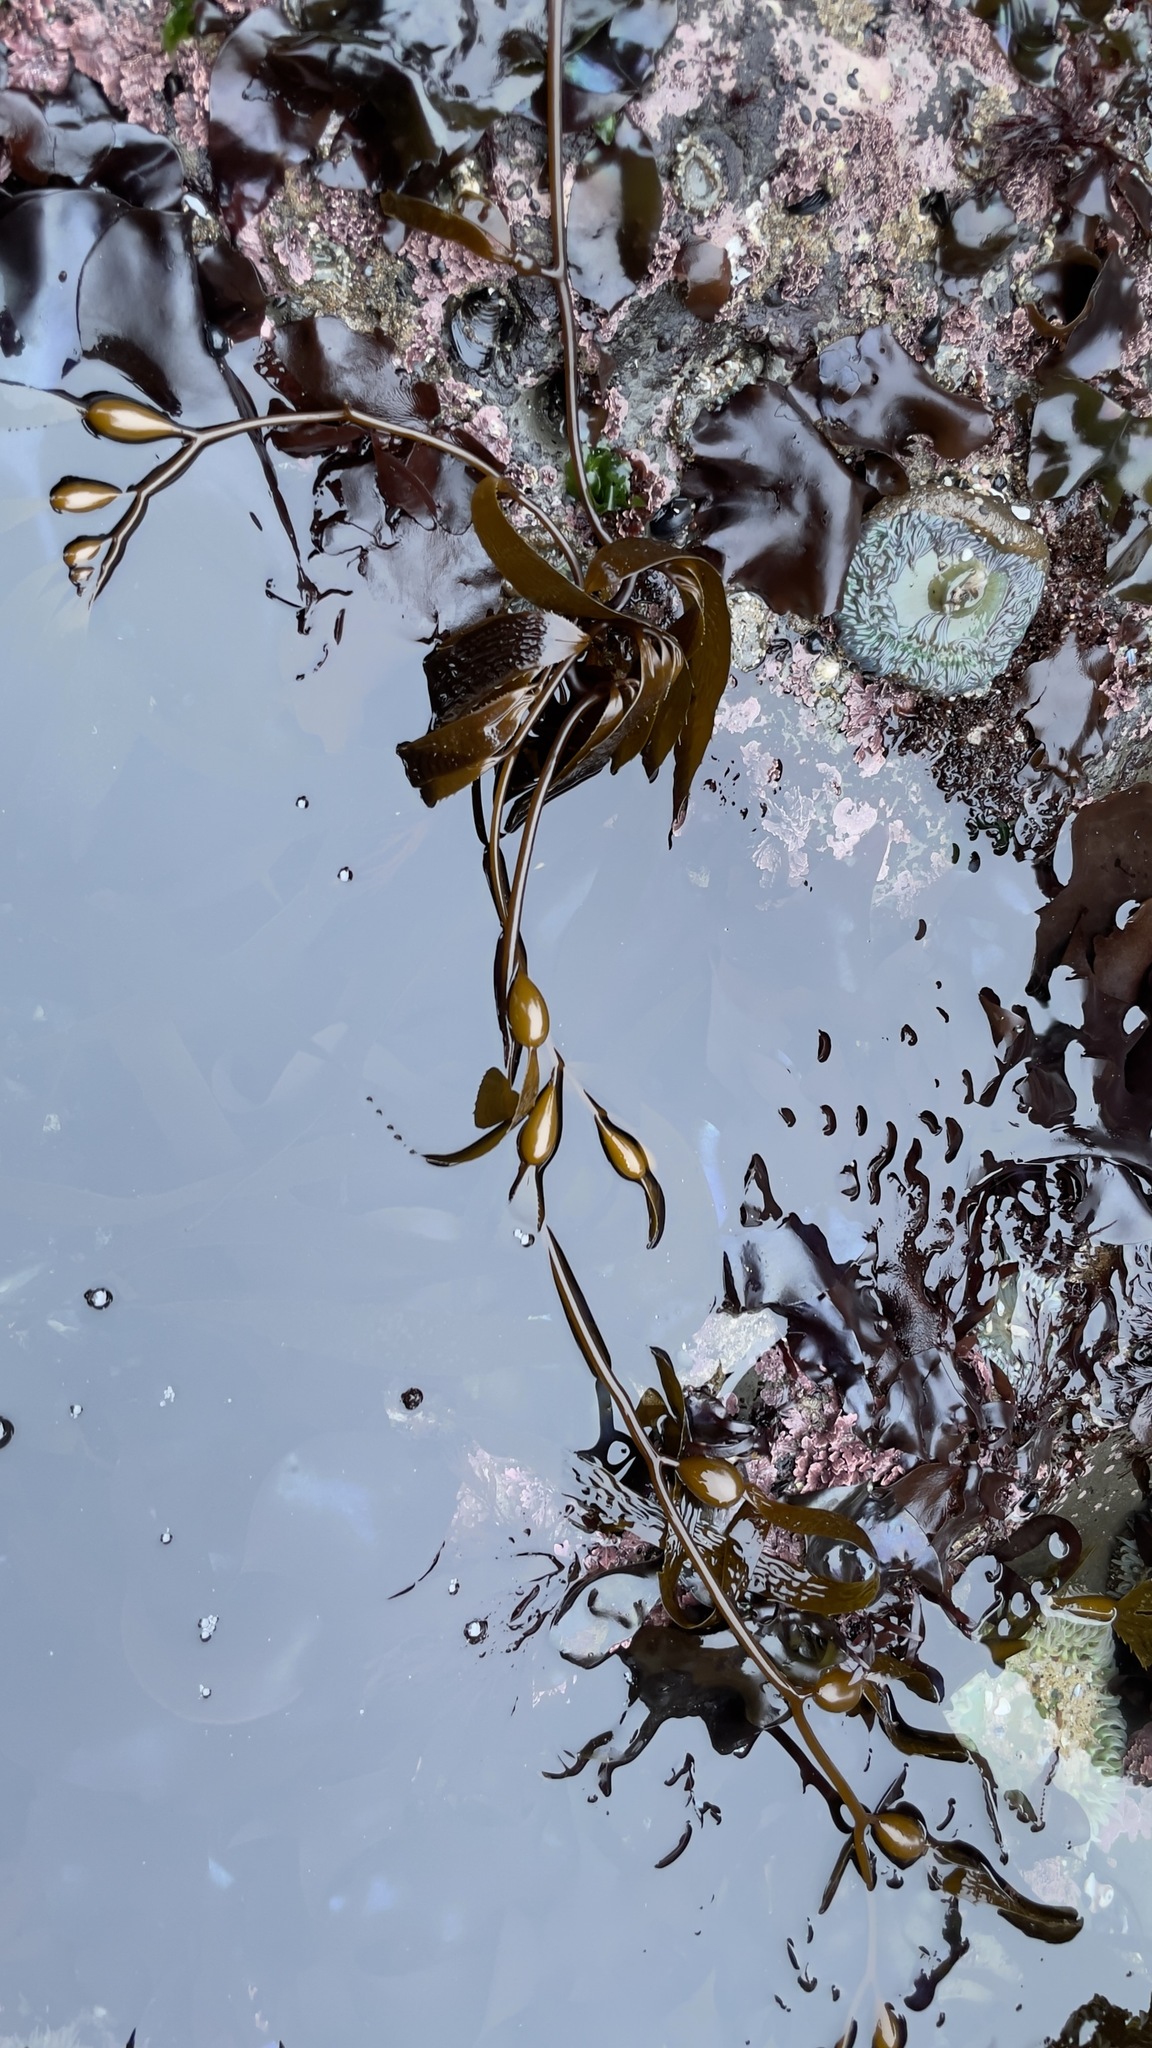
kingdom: Chromista
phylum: Ochrophyta
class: Phaeophyceae
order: Laminariales
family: Laminariaceae
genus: Macrocystis
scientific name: Macrocystis pyrifera
